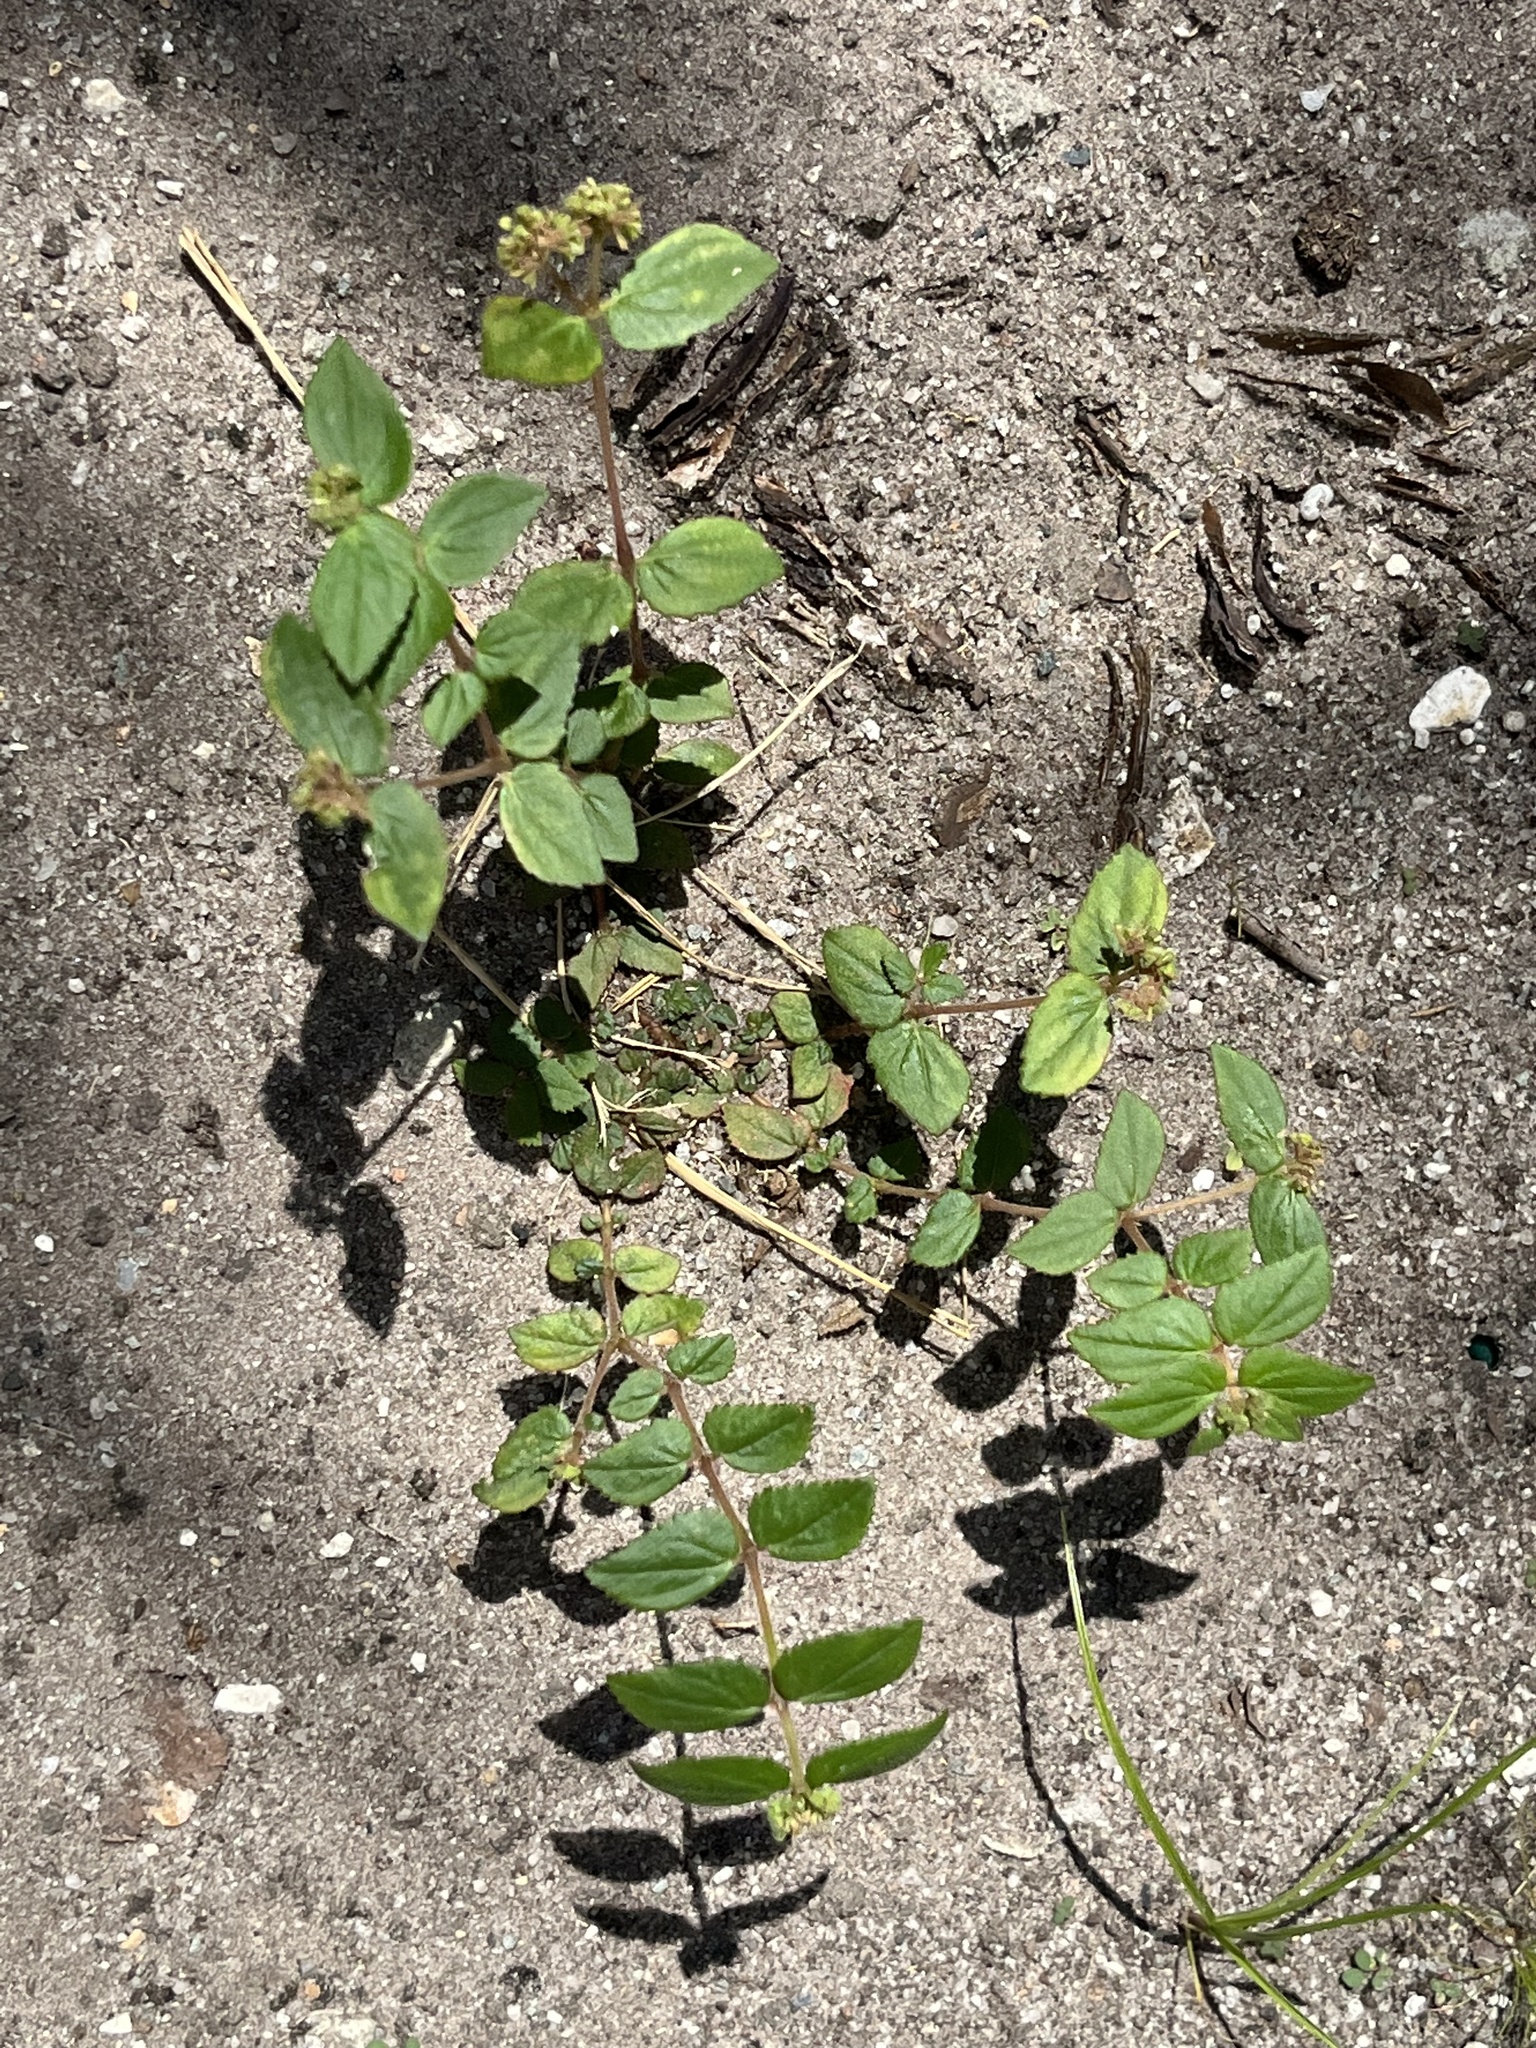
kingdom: Plantae
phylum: Tracheophyta
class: Magnoliopsida
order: Malpighiales
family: Euphorbiaceae
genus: Euphorbia
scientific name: Euphorbia ophthalmica
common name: Florida hammock sandmat
